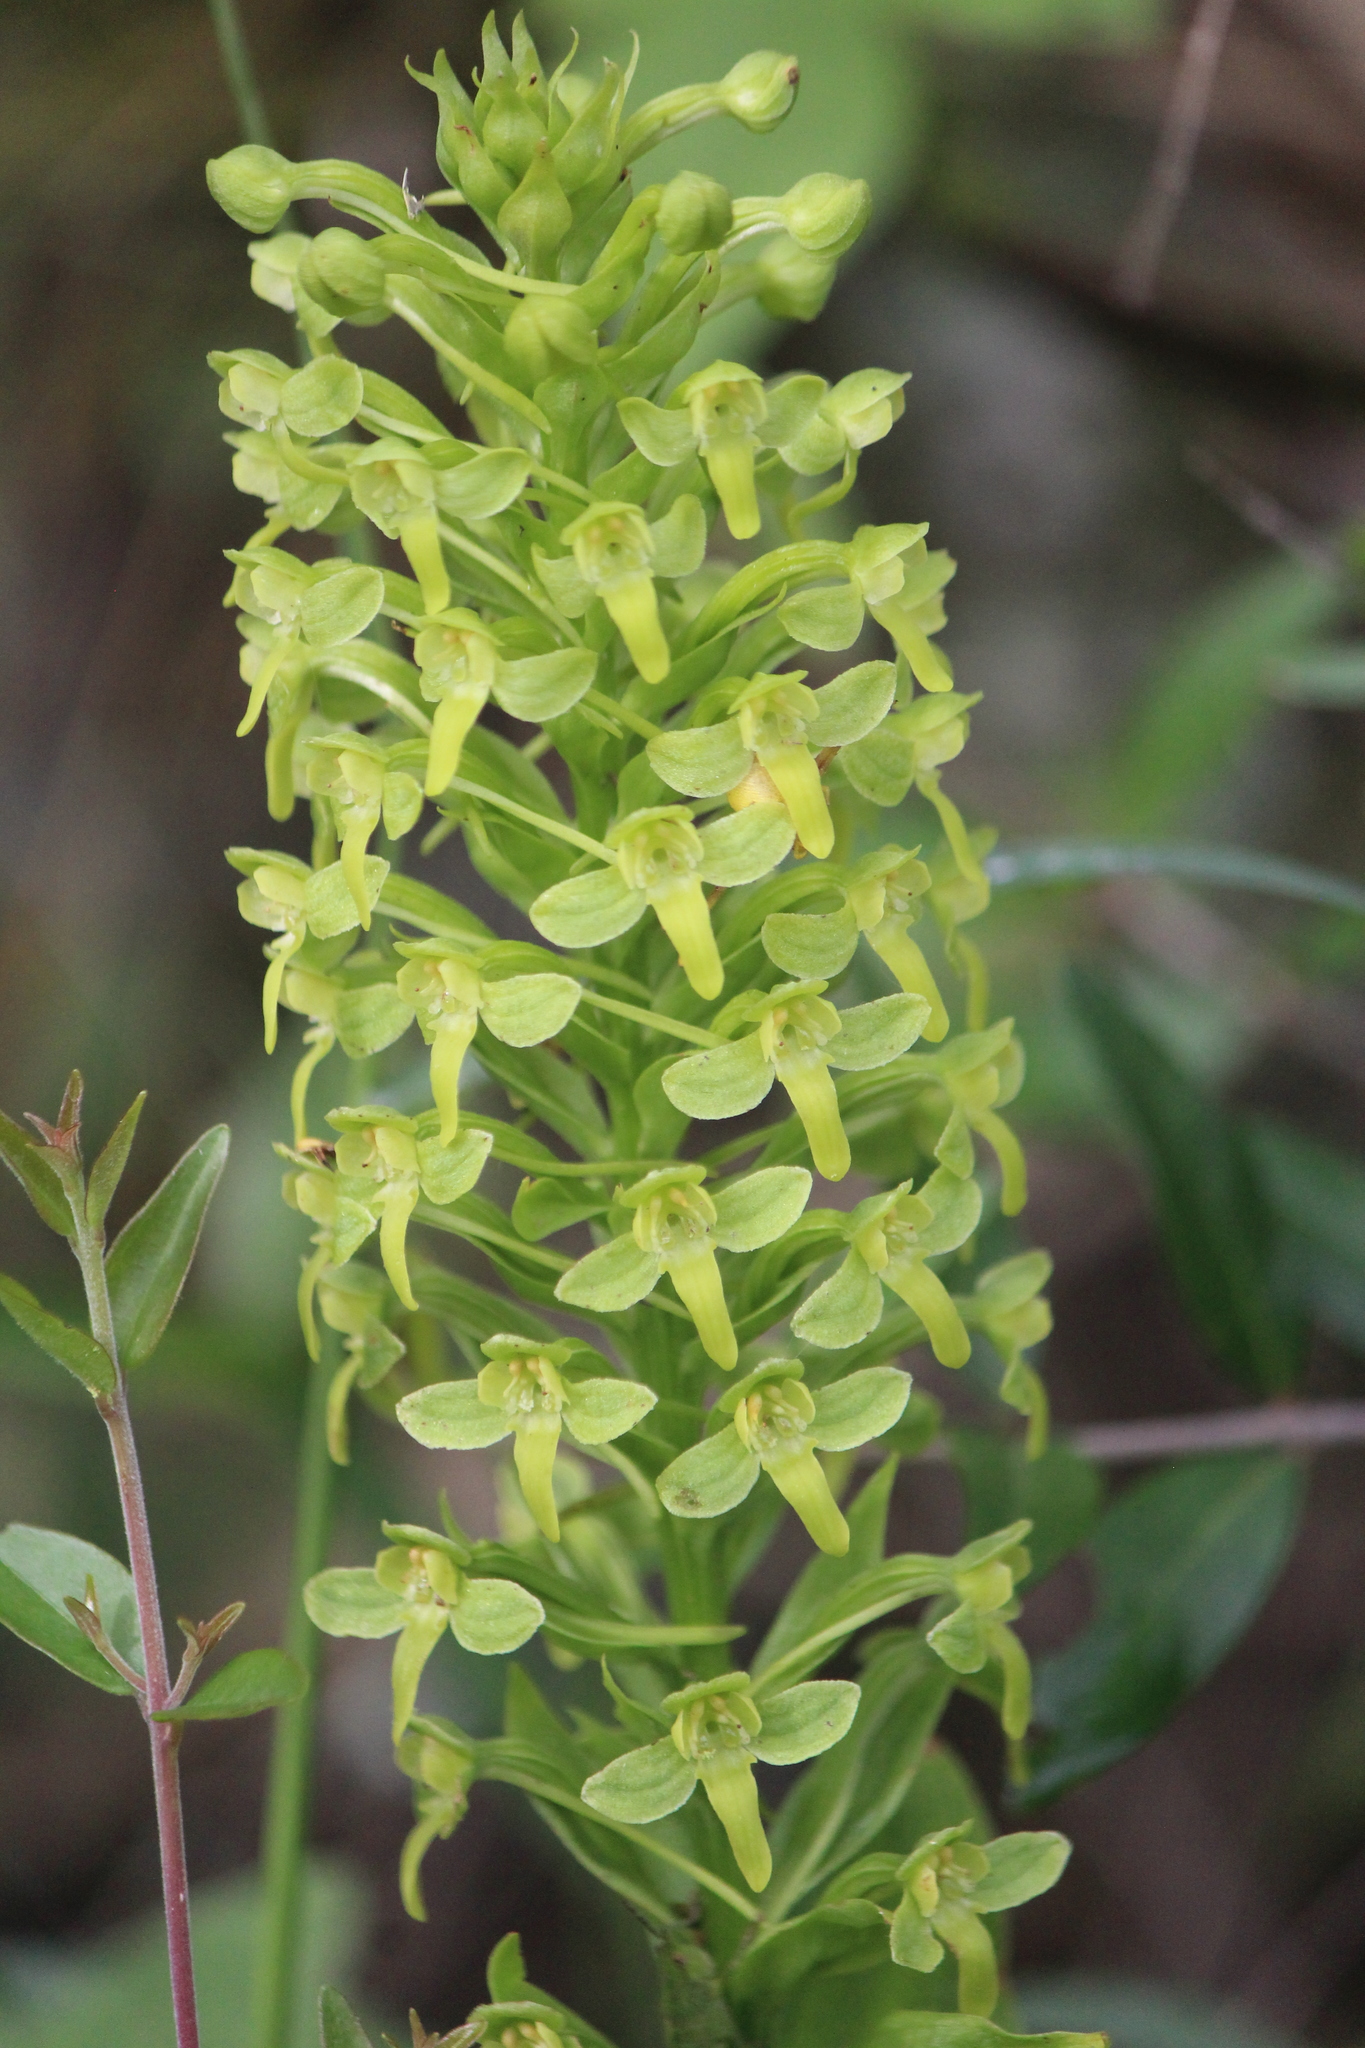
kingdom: Plantae
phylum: Tracheophyta
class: Liliopsida
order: Asparagales
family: Orchidaceae
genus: Habenaria
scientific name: Habenaria strictissima
